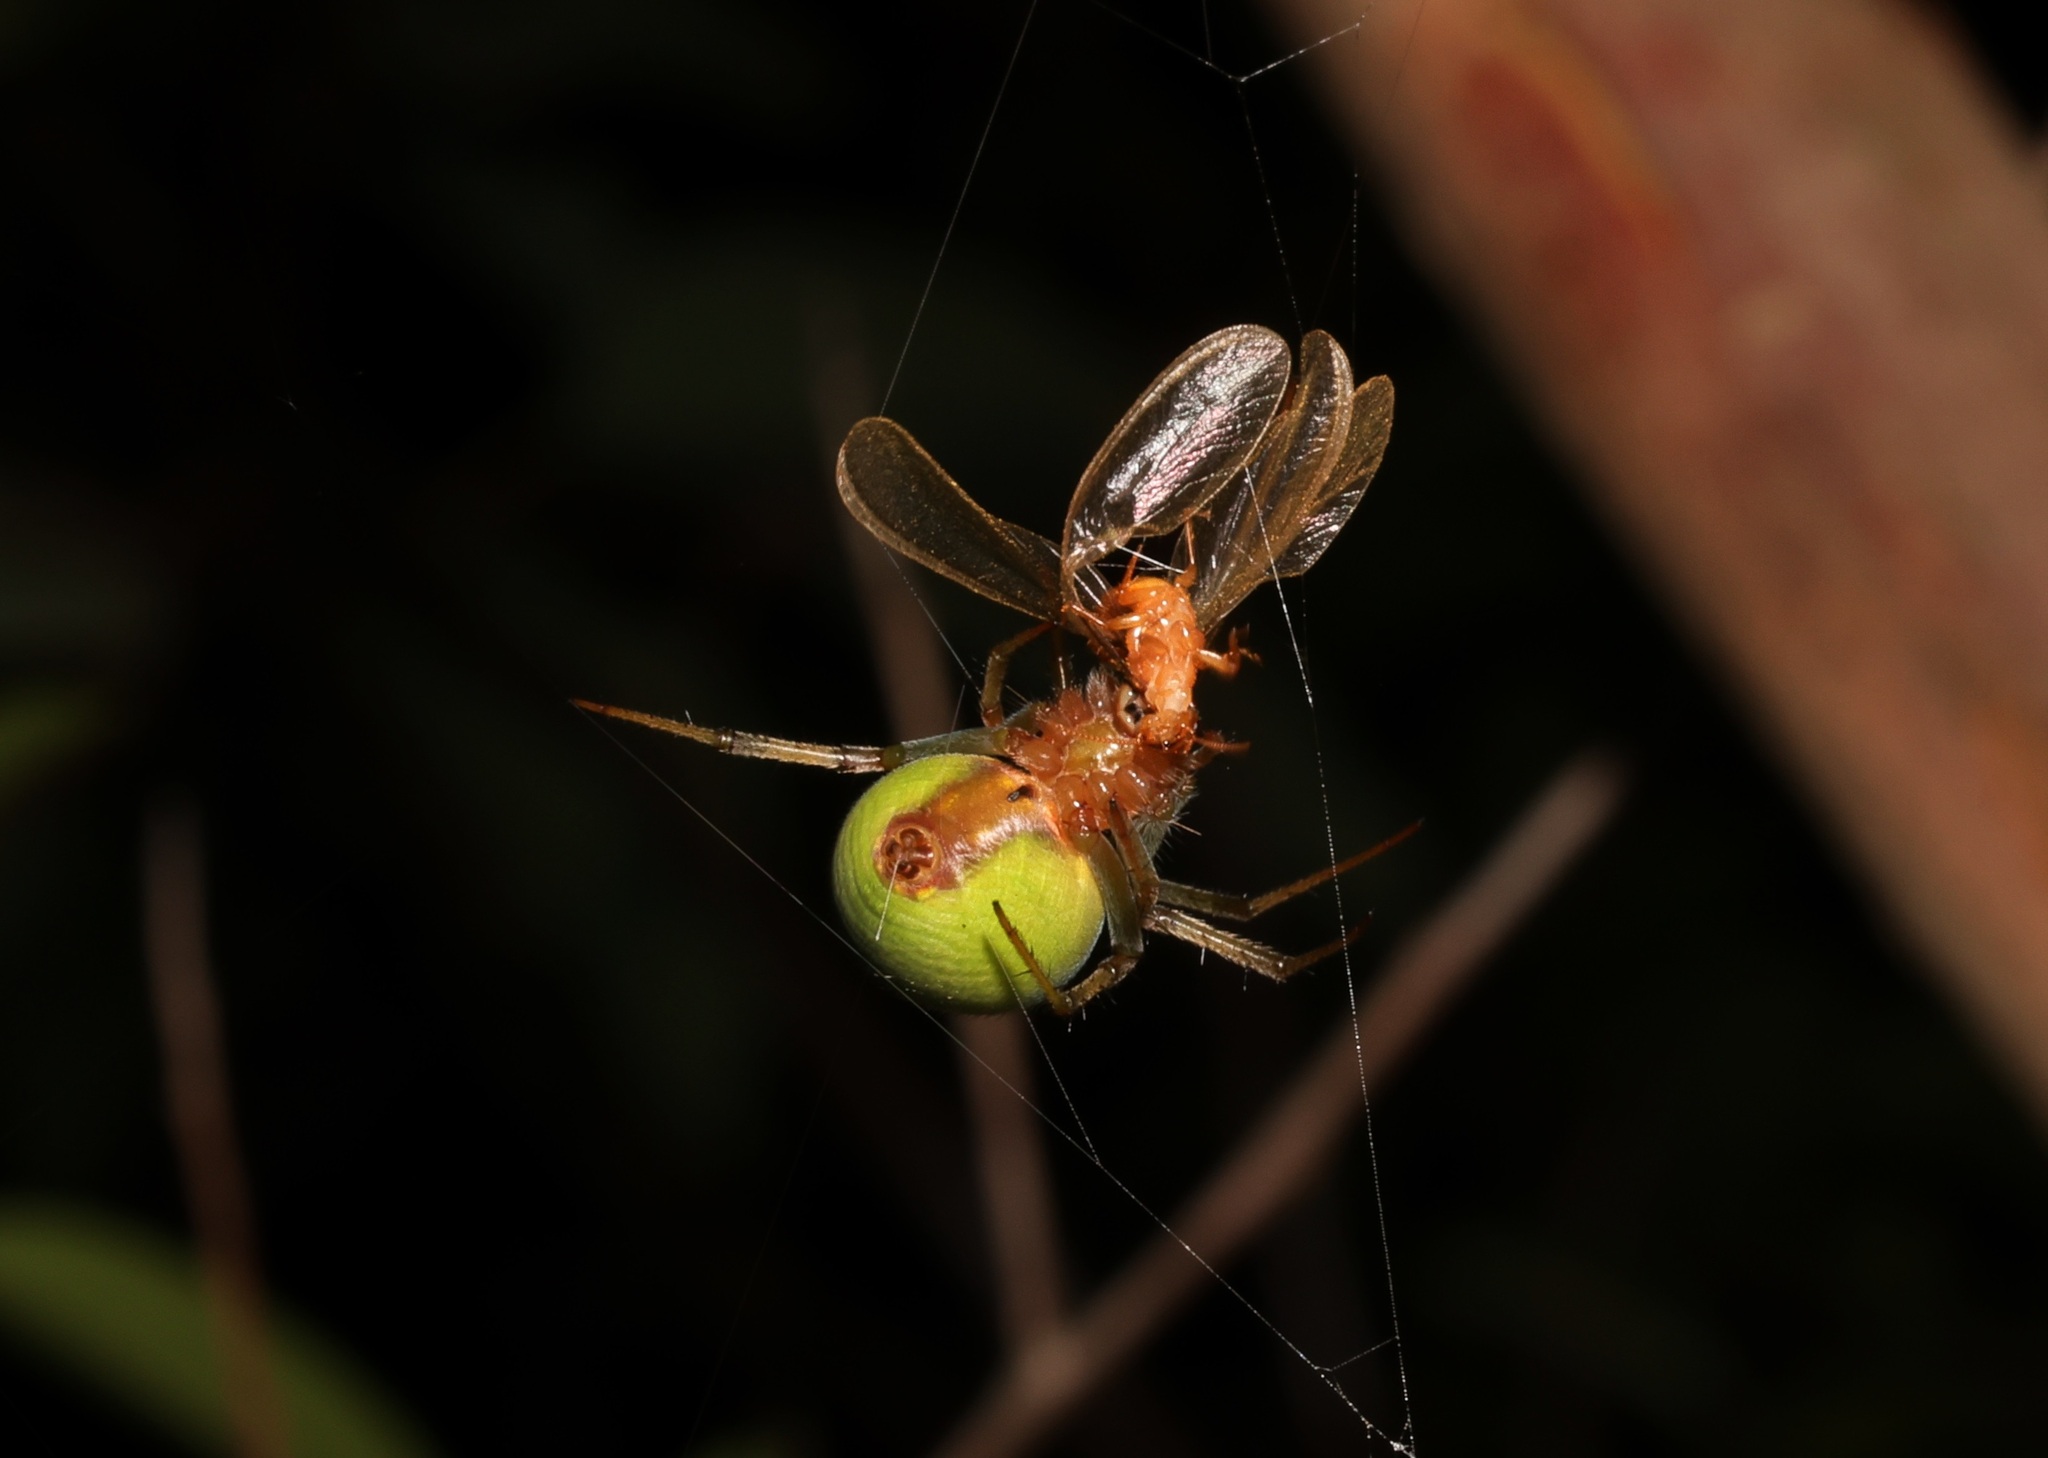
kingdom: Animalia
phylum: Arthropoda
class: Arachnida
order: Araneae
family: Araneidae
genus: Neoscona
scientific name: Neoscona scylloides
